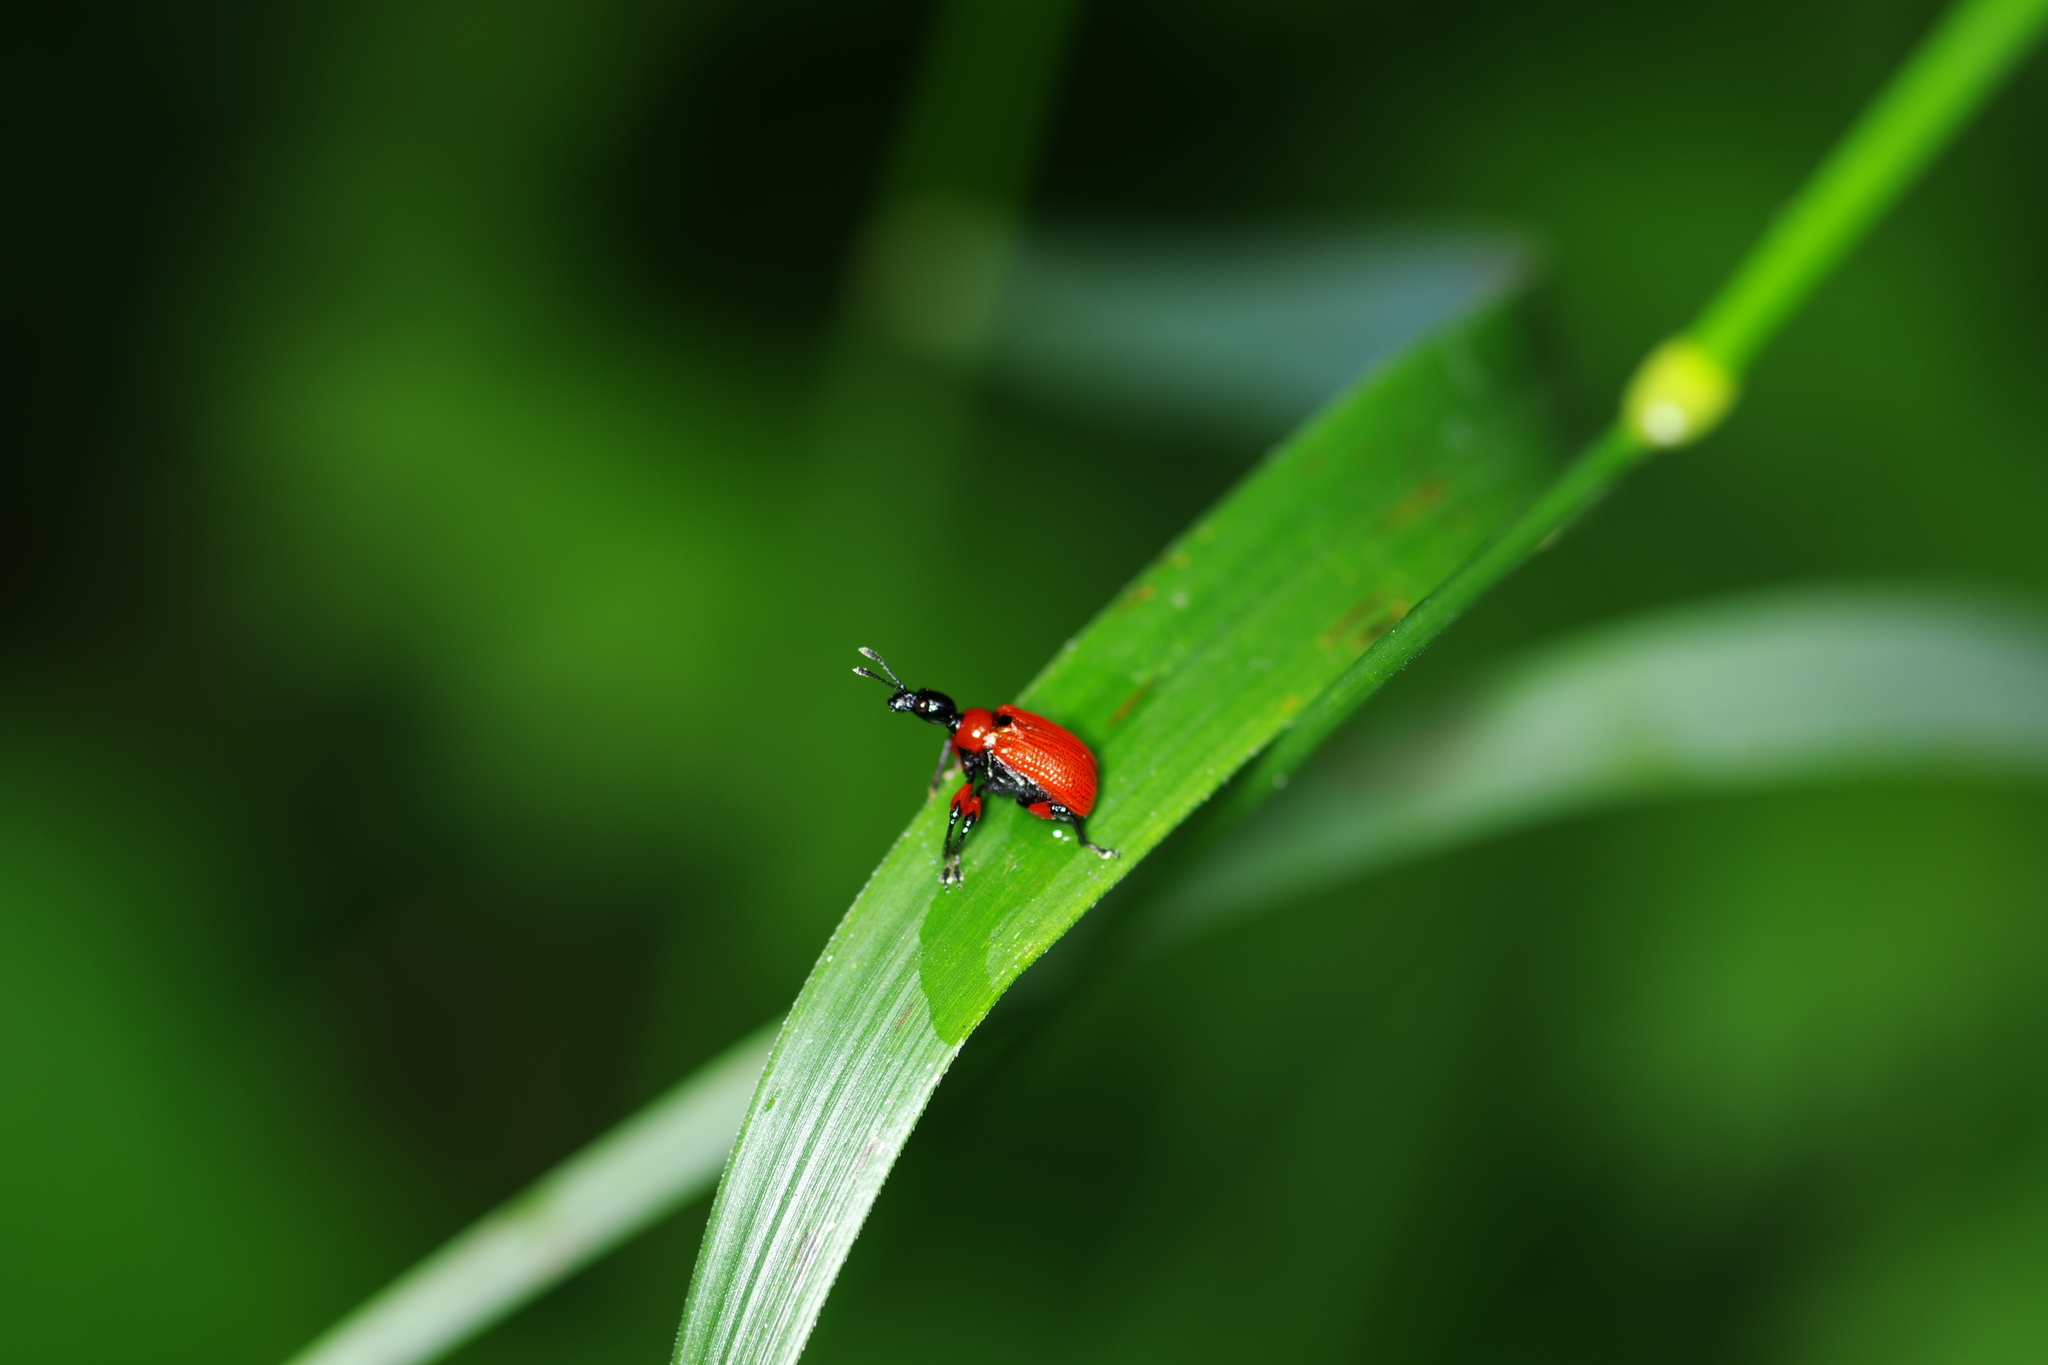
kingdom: Animalia
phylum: Arthropoda
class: Insecta
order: Coleoptera
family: Attelabidae
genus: Apoderus
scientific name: Apoderus coryli
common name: Hazel leaf roller
